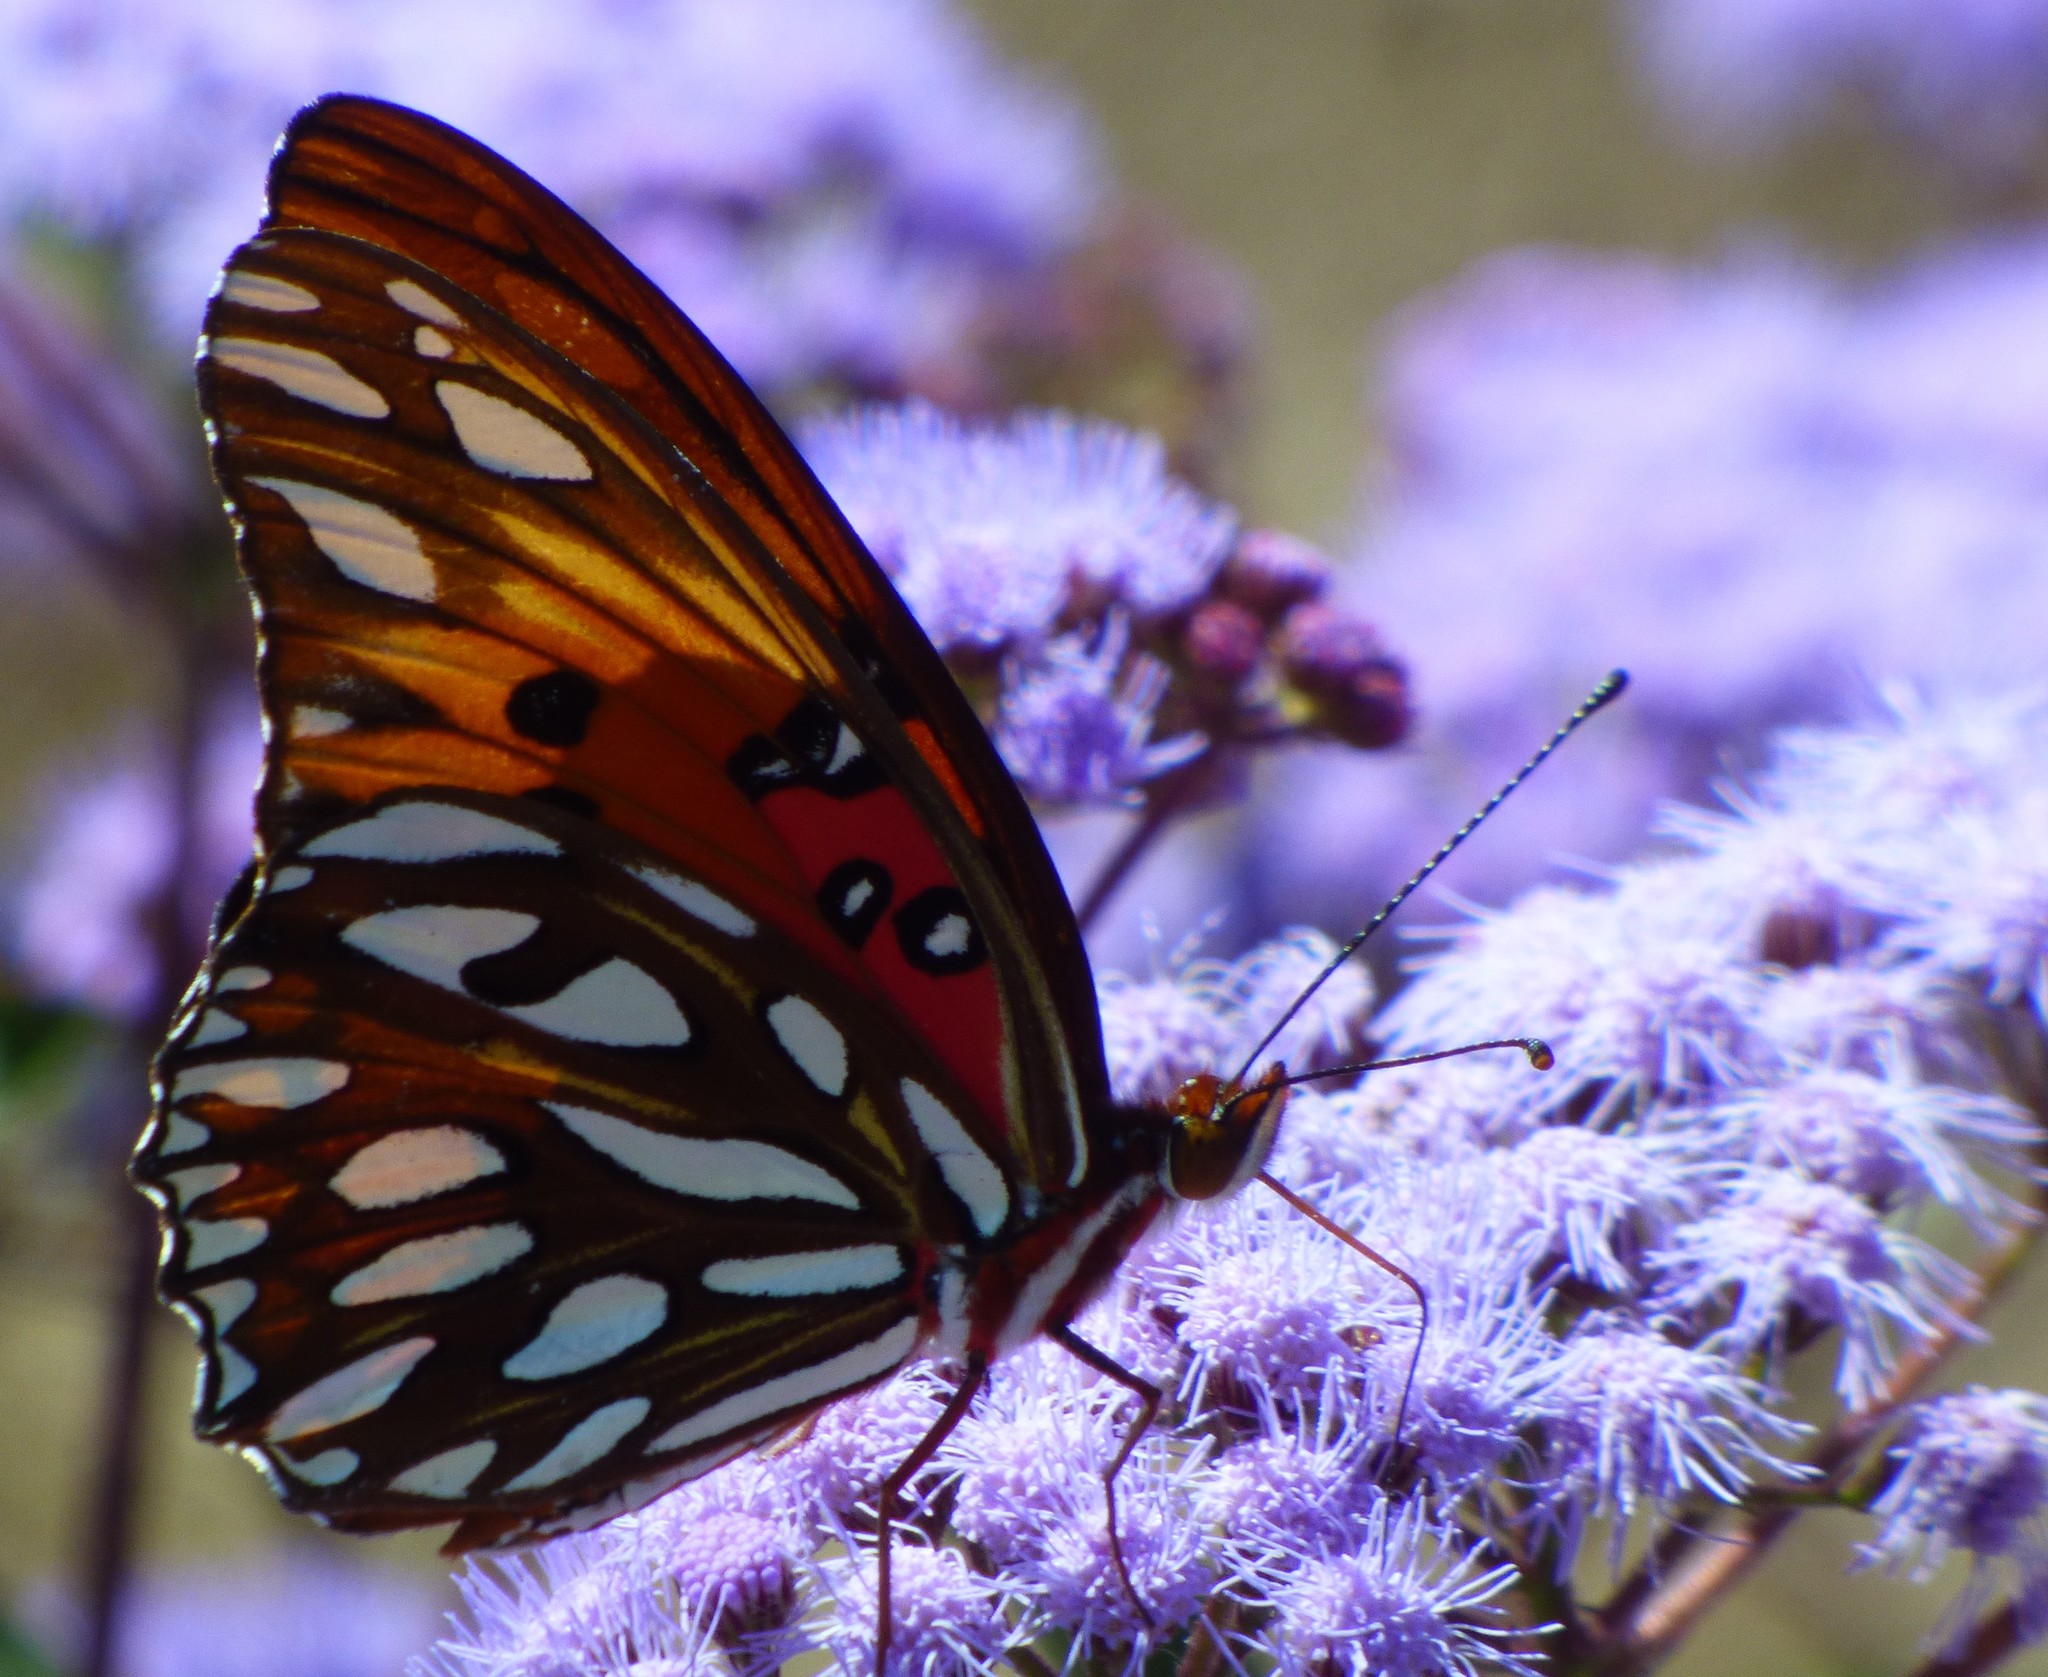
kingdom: Animalia
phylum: Arthropoda
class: Insecta
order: Lepidoptera
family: Nymphalidae
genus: Dione
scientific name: Dione vanillae
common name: Gulf fritillary
